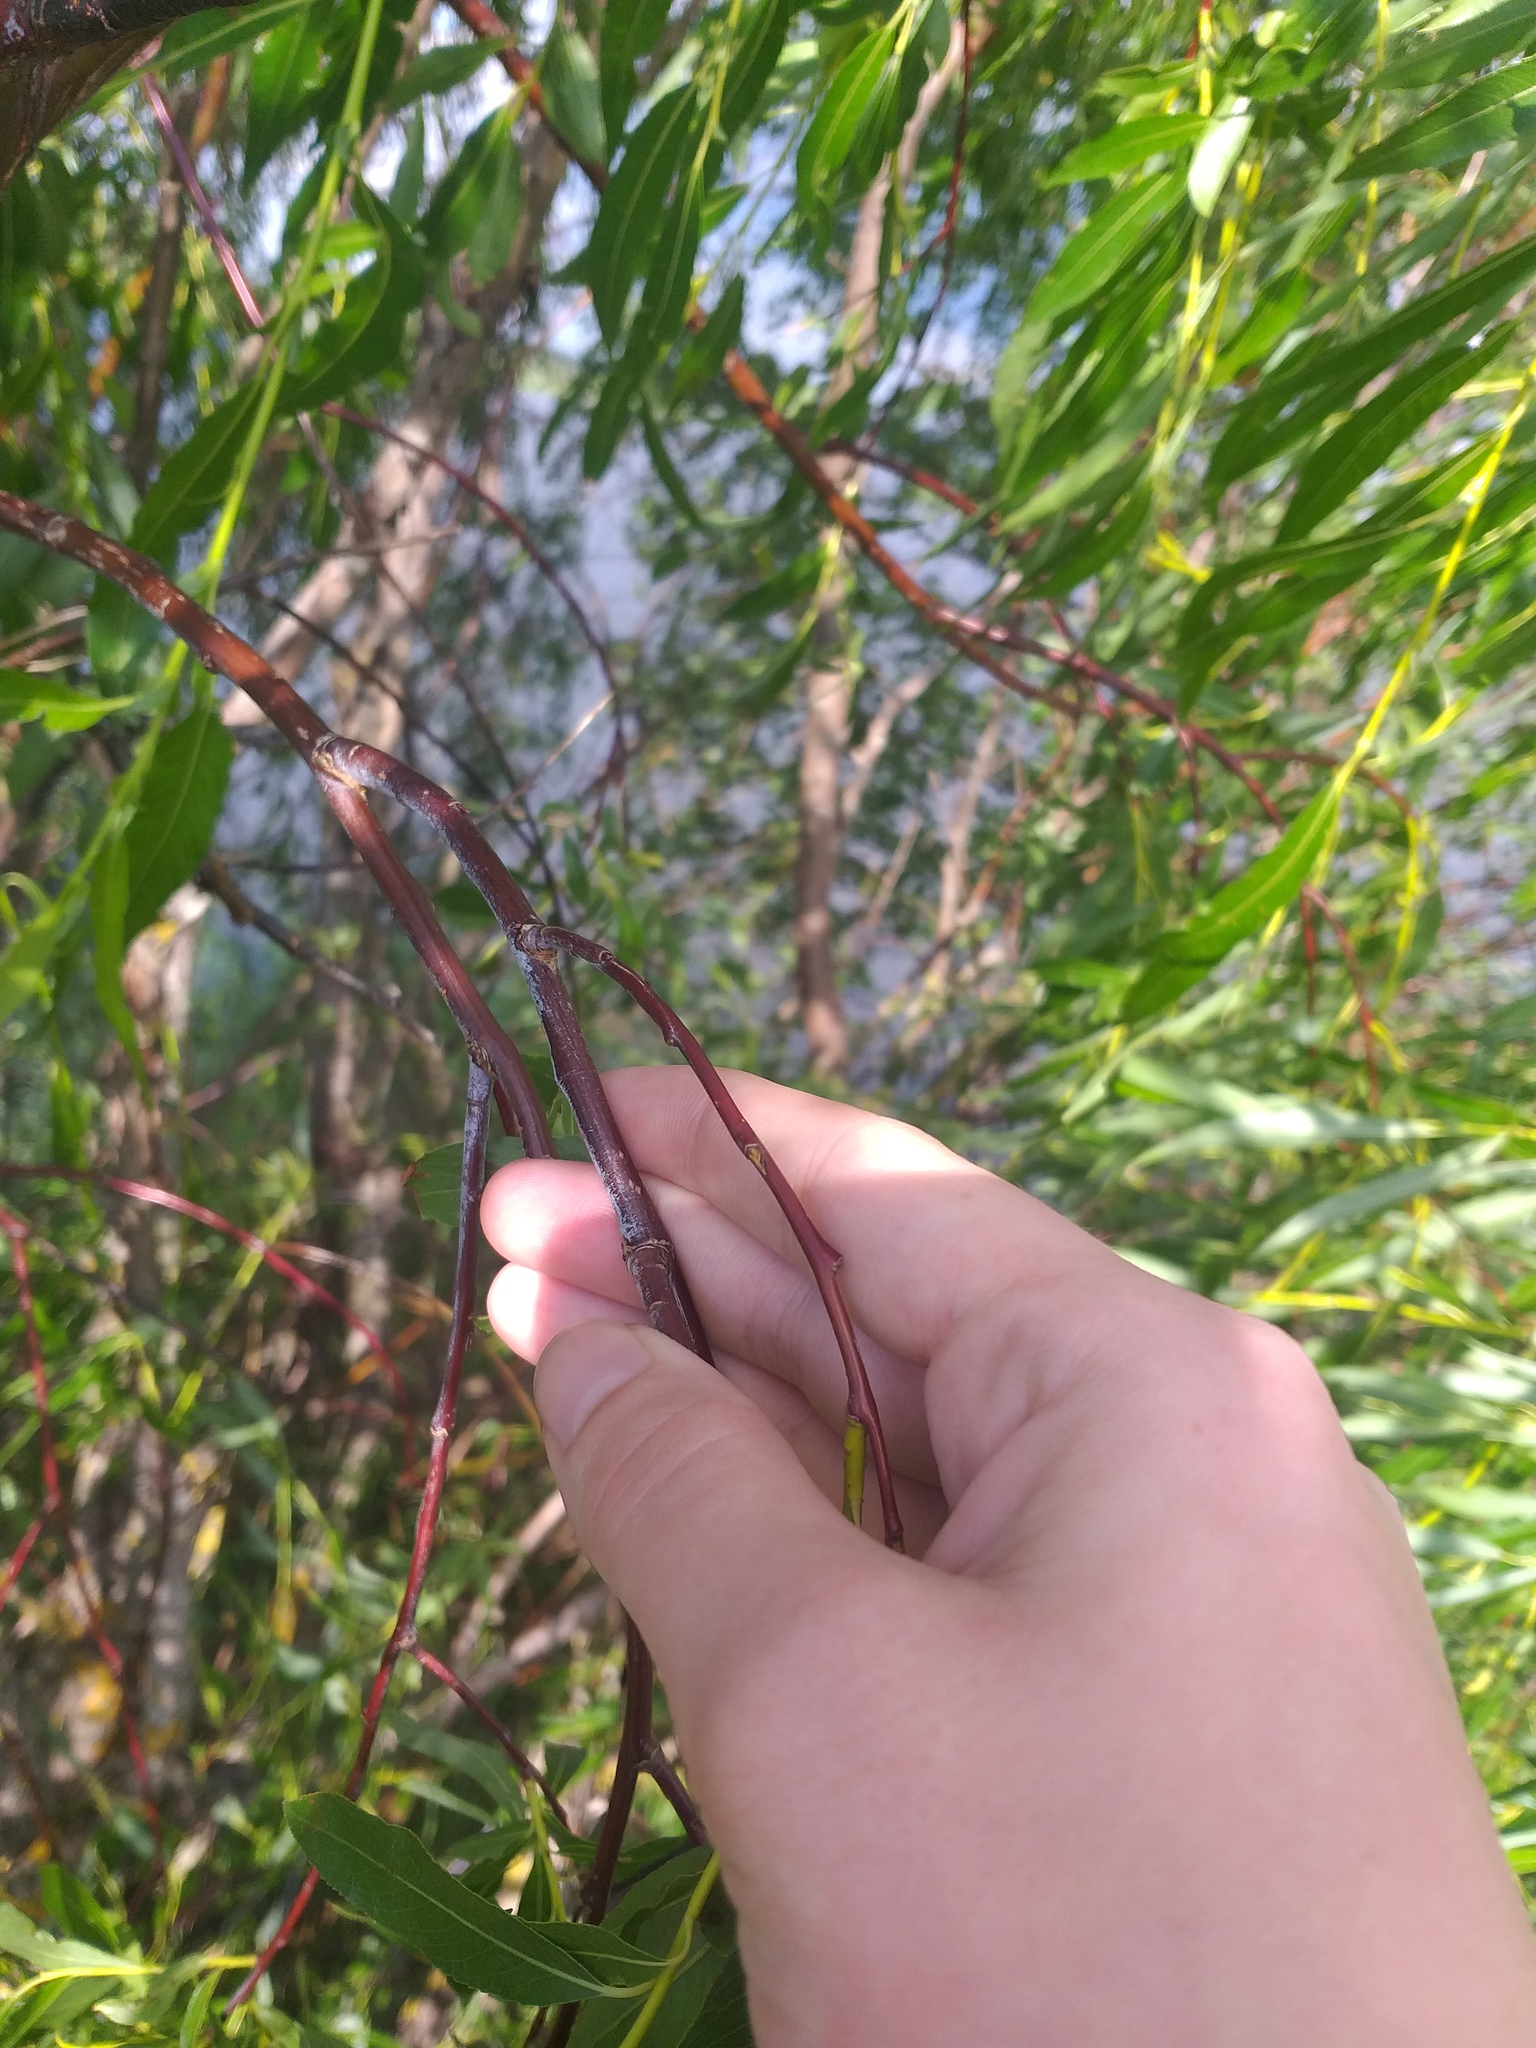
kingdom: Plantae
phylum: Tracheophyta
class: Magnoliopsida
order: Malpighiales
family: Salicaceae
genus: Salix
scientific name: Salix acutifolia
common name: Siberian violet-willow
